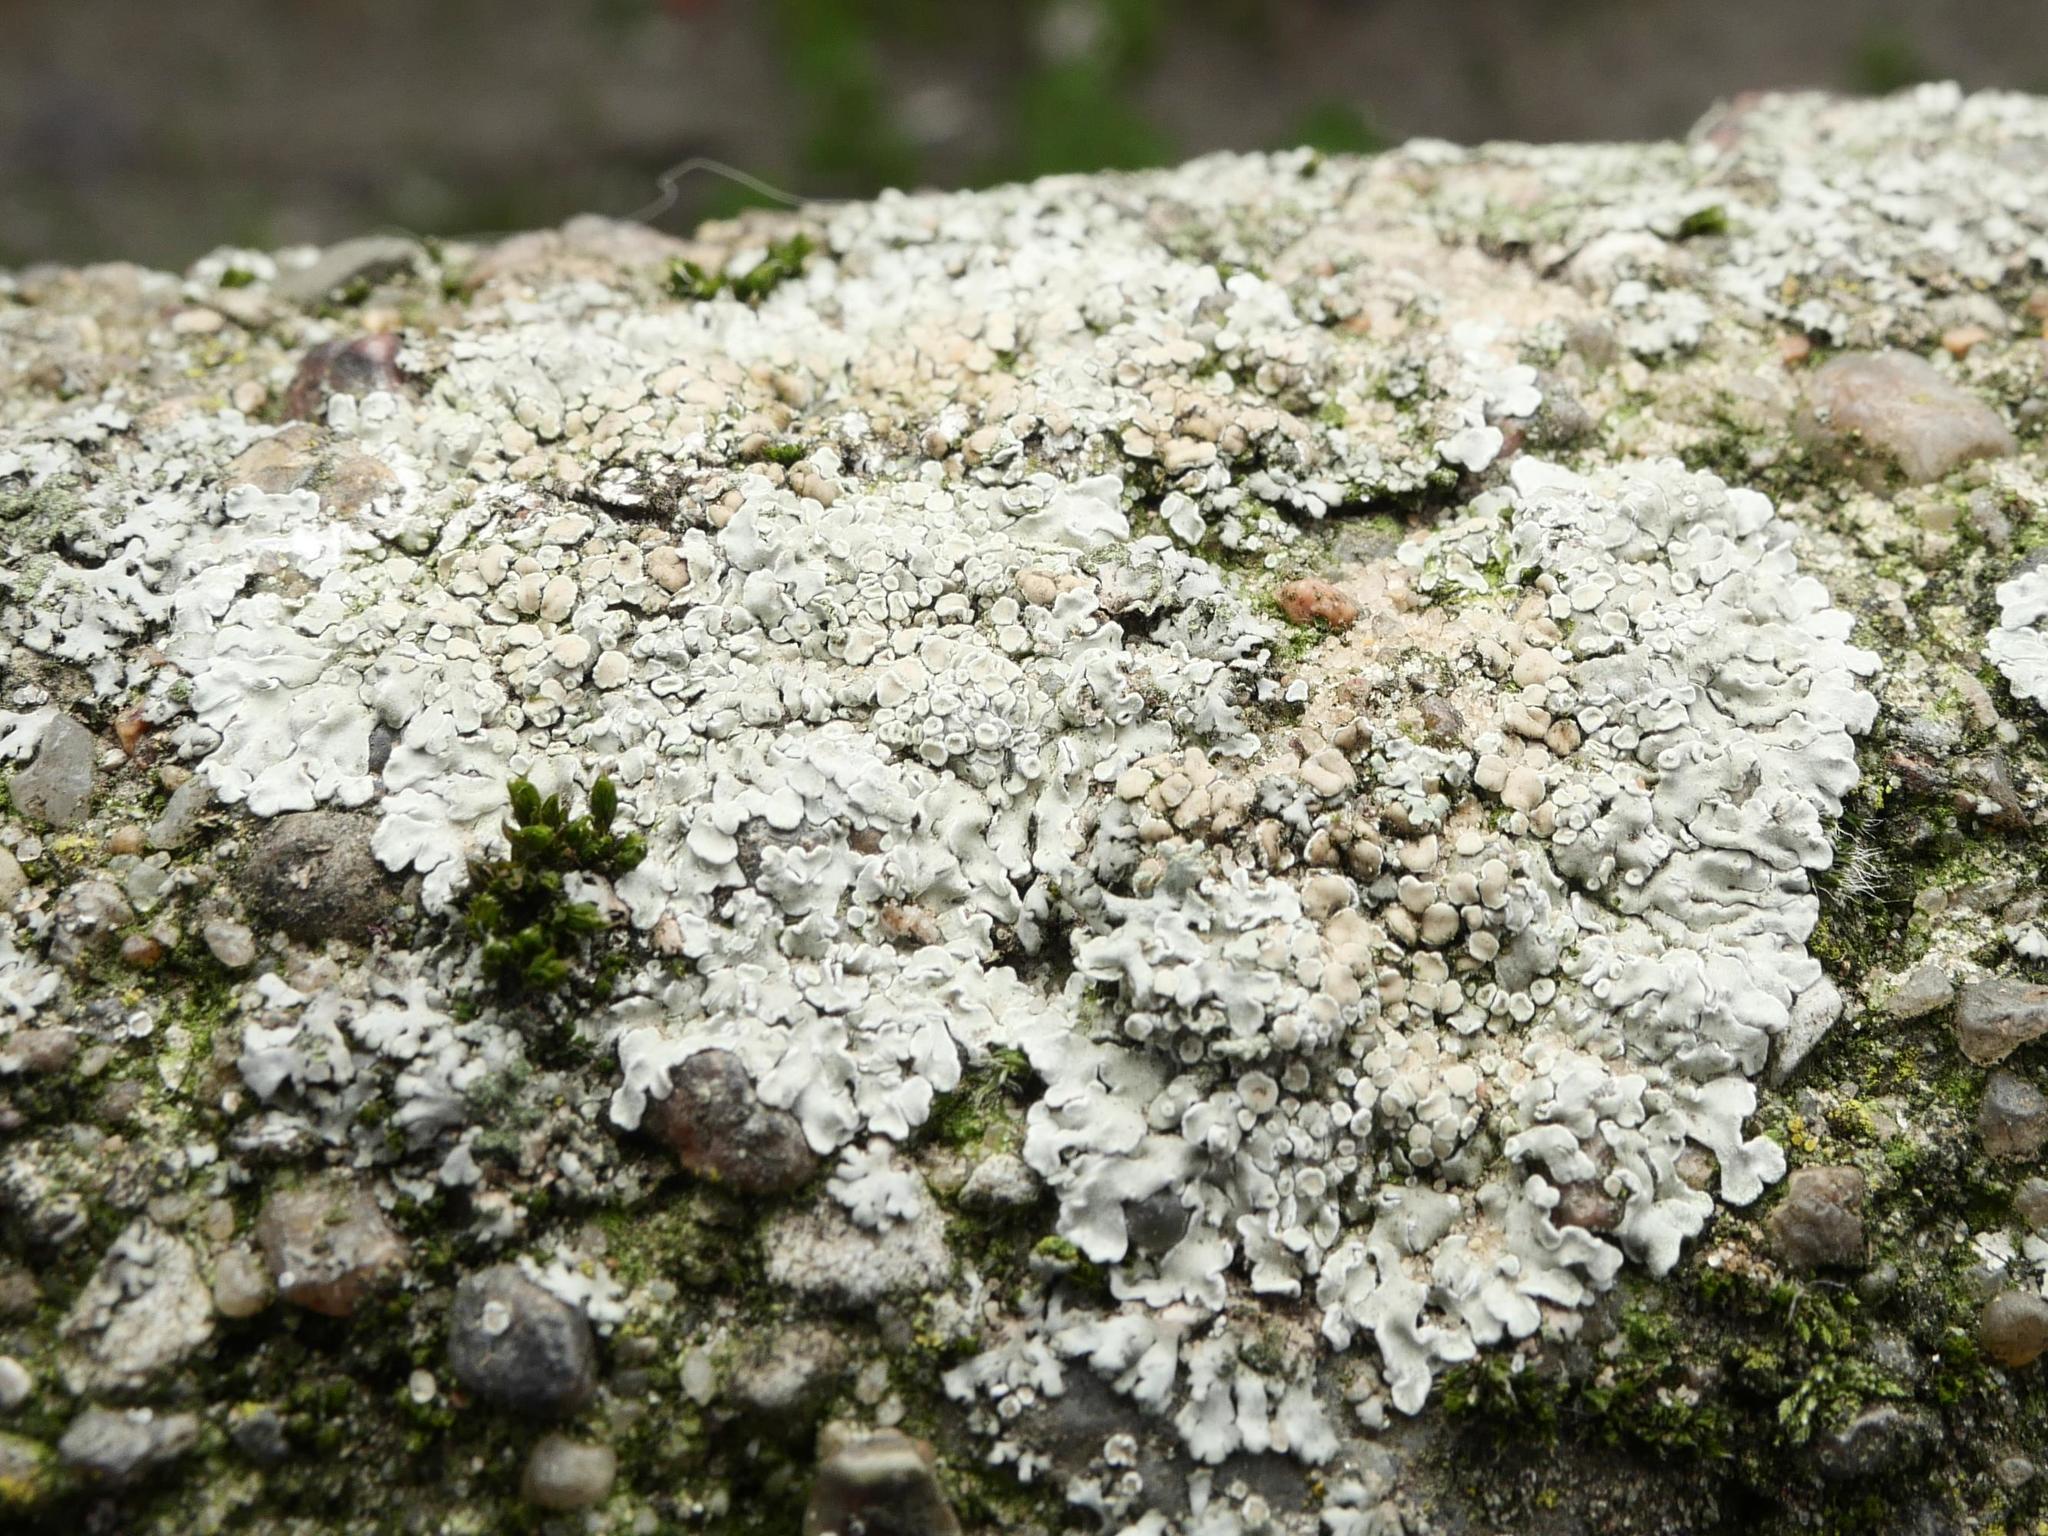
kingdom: Fungi
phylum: Ascomycota
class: Lecanoromycetes
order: Lecanorales
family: Lecanoraceae
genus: Protoparmeliopsis
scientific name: Protoparmeliopsis muralis
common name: Stonewall rim lichen
